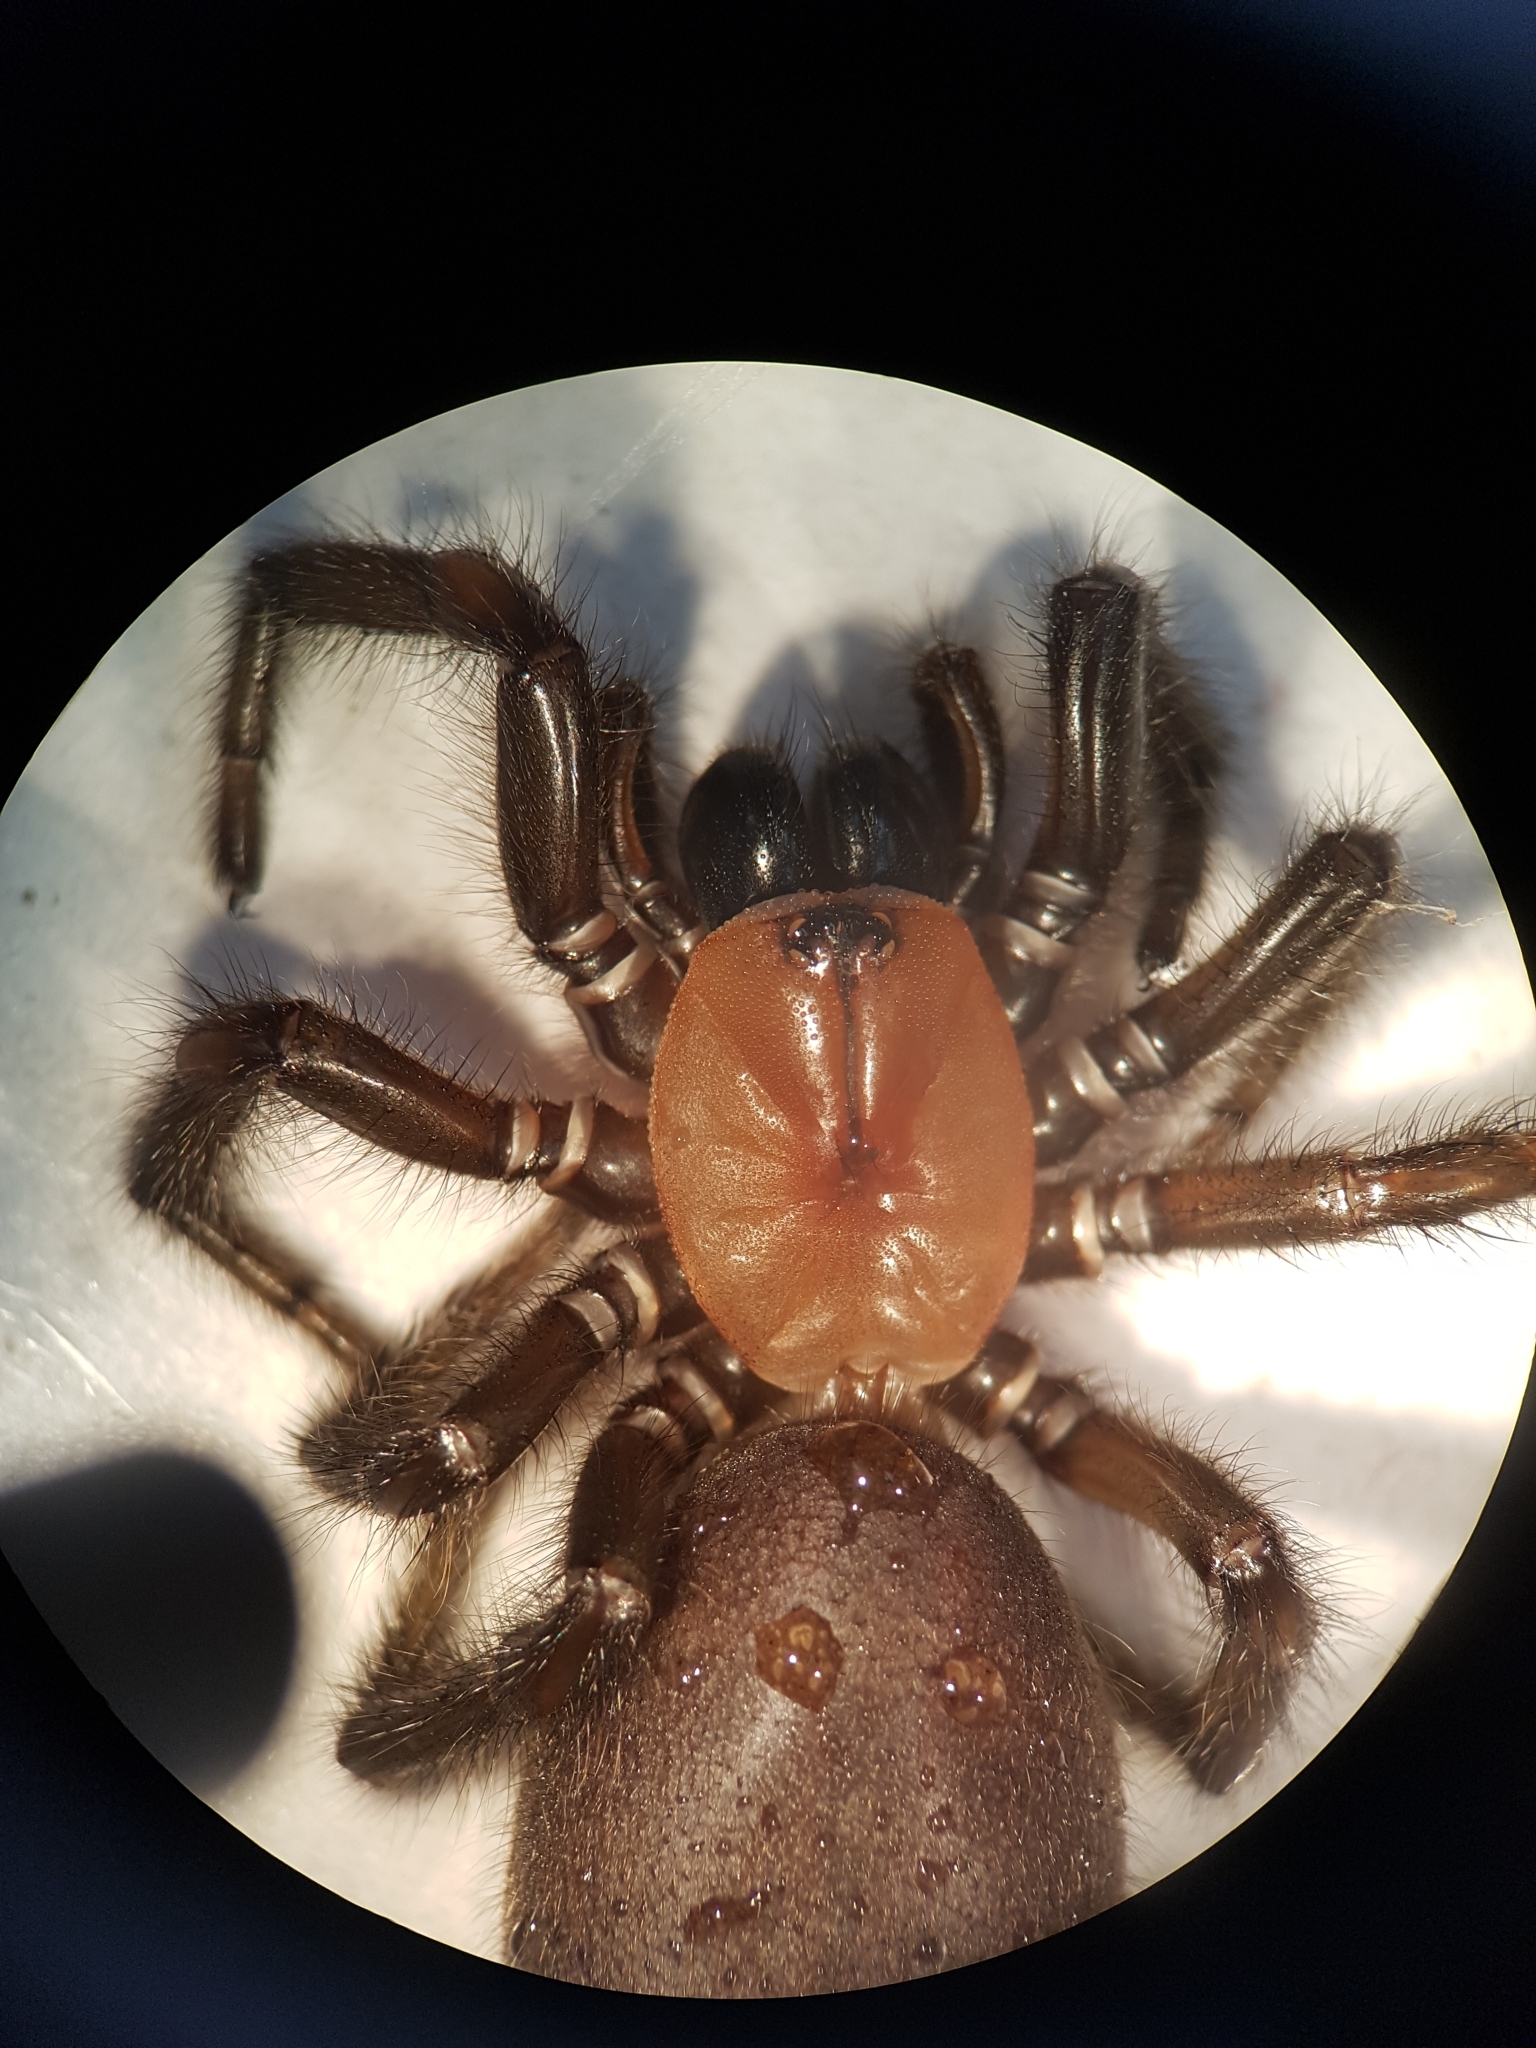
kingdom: Animalia
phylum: Arthropoda
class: Arachnida
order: Araneae
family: Porrhothelidae
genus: Porrhothele
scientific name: Porrhothele antipodiana
